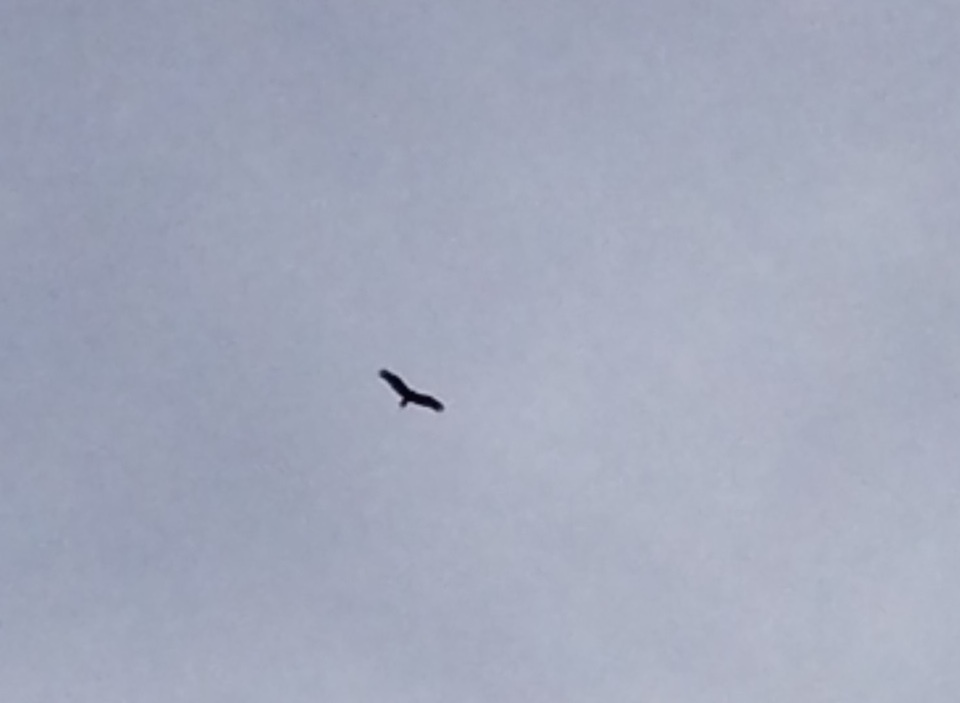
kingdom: Animalia
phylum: Chordata
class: Aves
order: Accipitriformes
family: Cathartidae
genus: Cathartes
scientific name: Cathartes aura
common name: Turkey vulture
